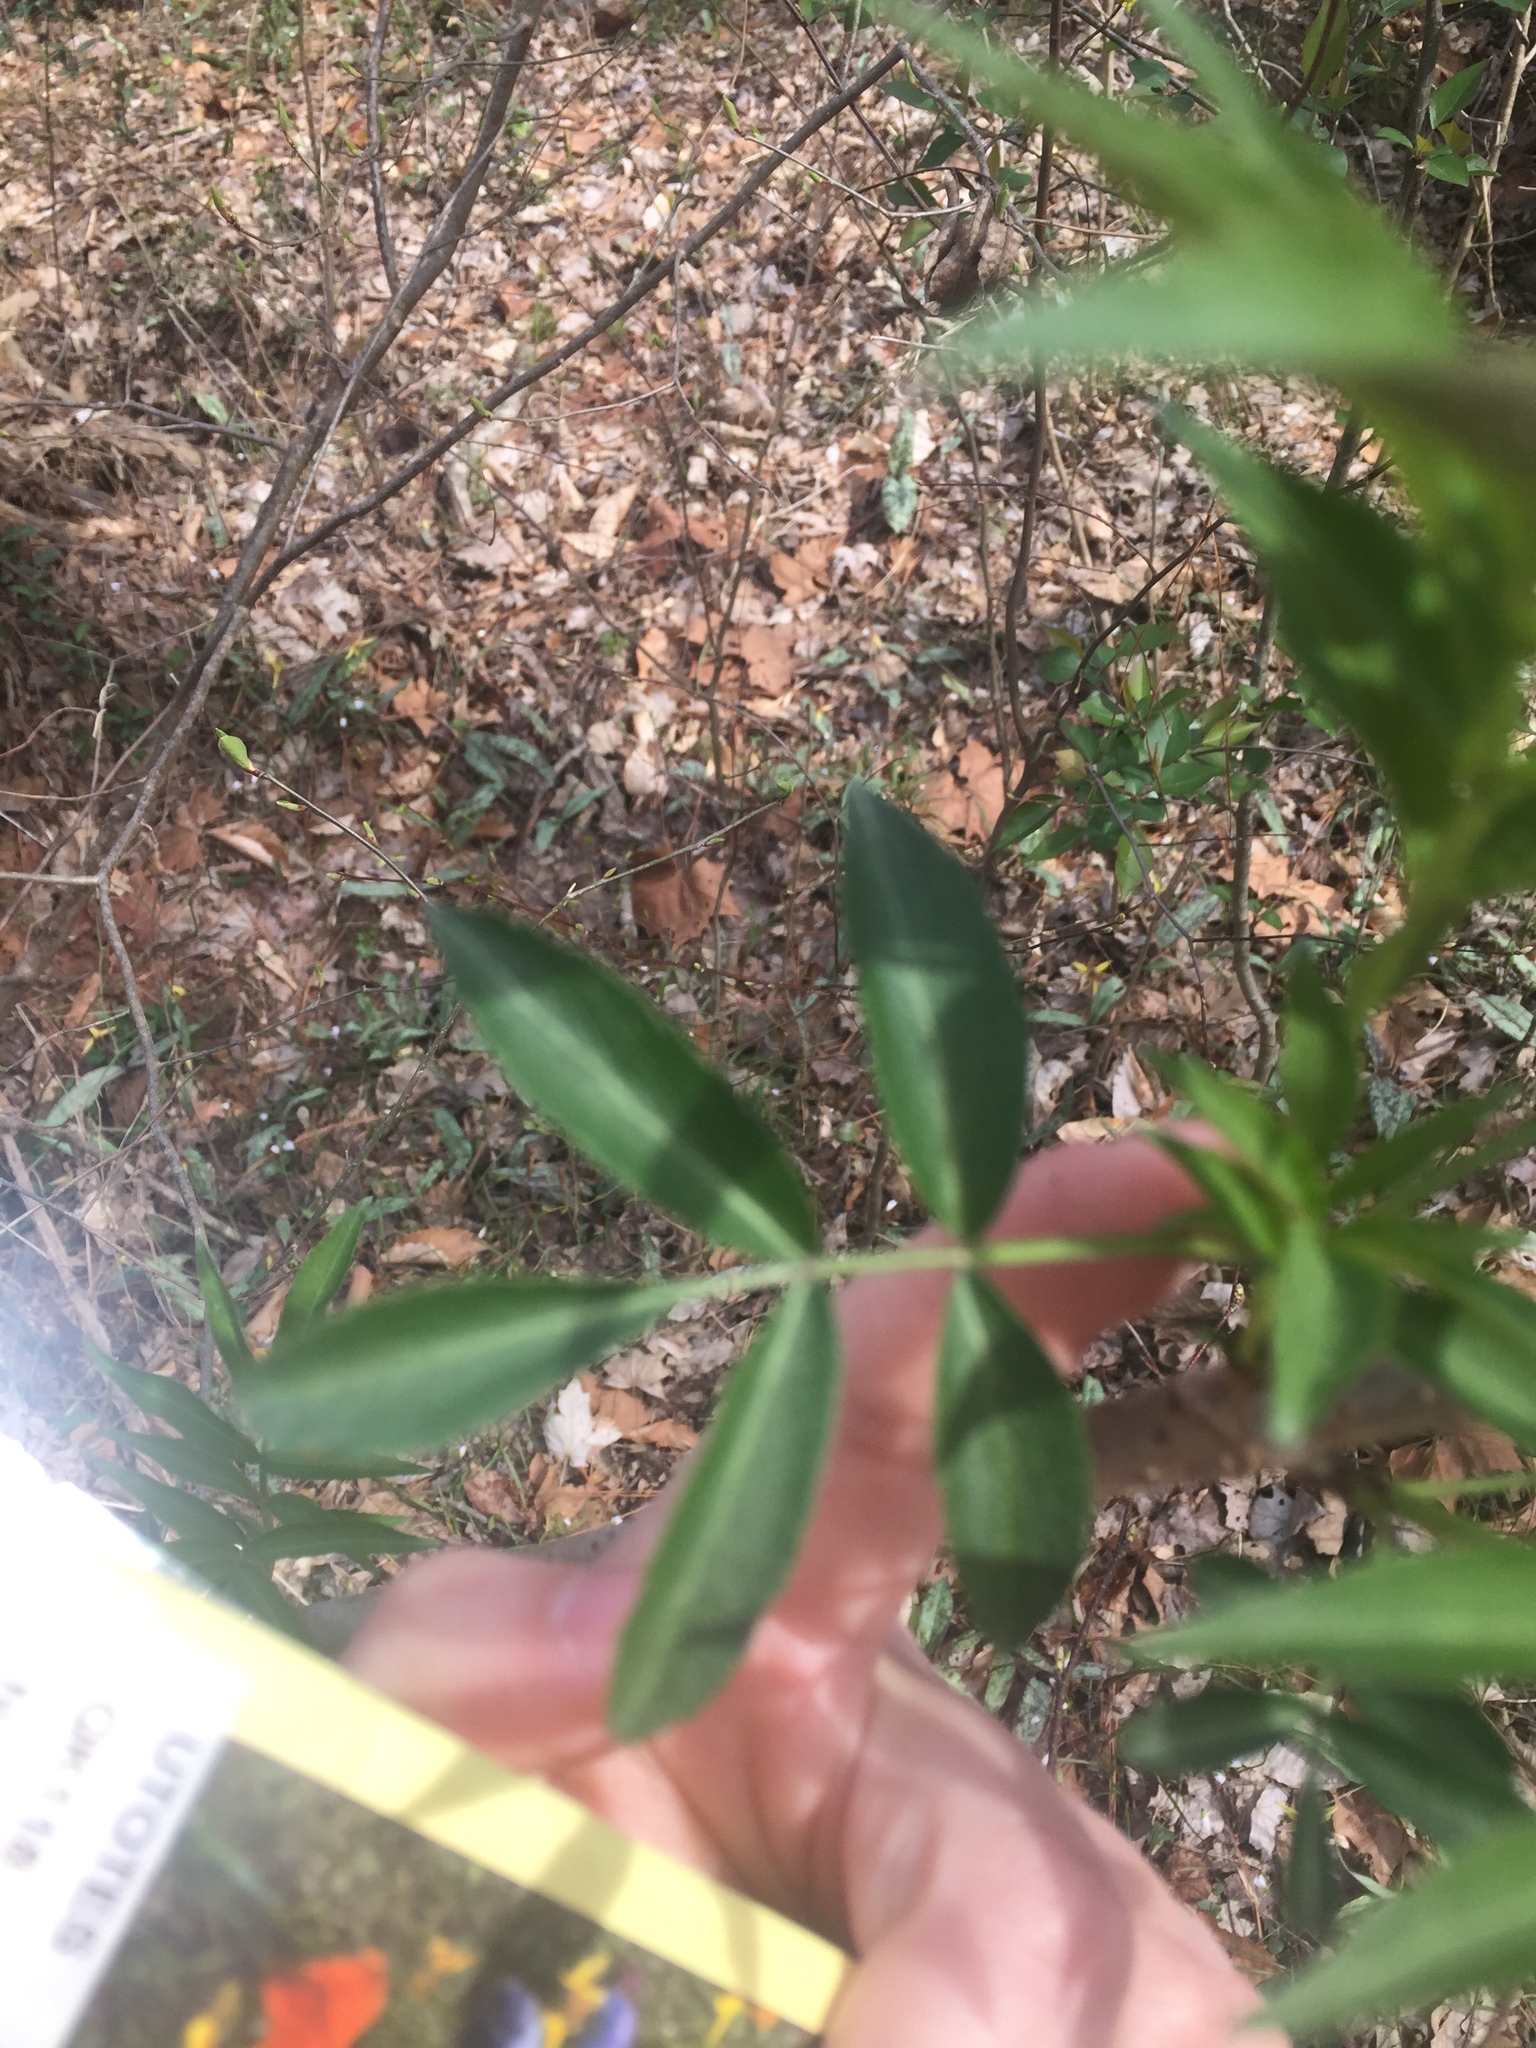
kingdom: Plantae
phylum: Tracheophyta
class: Magnoliopsida
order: Dipsacales
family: Viburnaceae
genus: Sambucus
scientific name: Sambucus canadensis
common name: American elder
